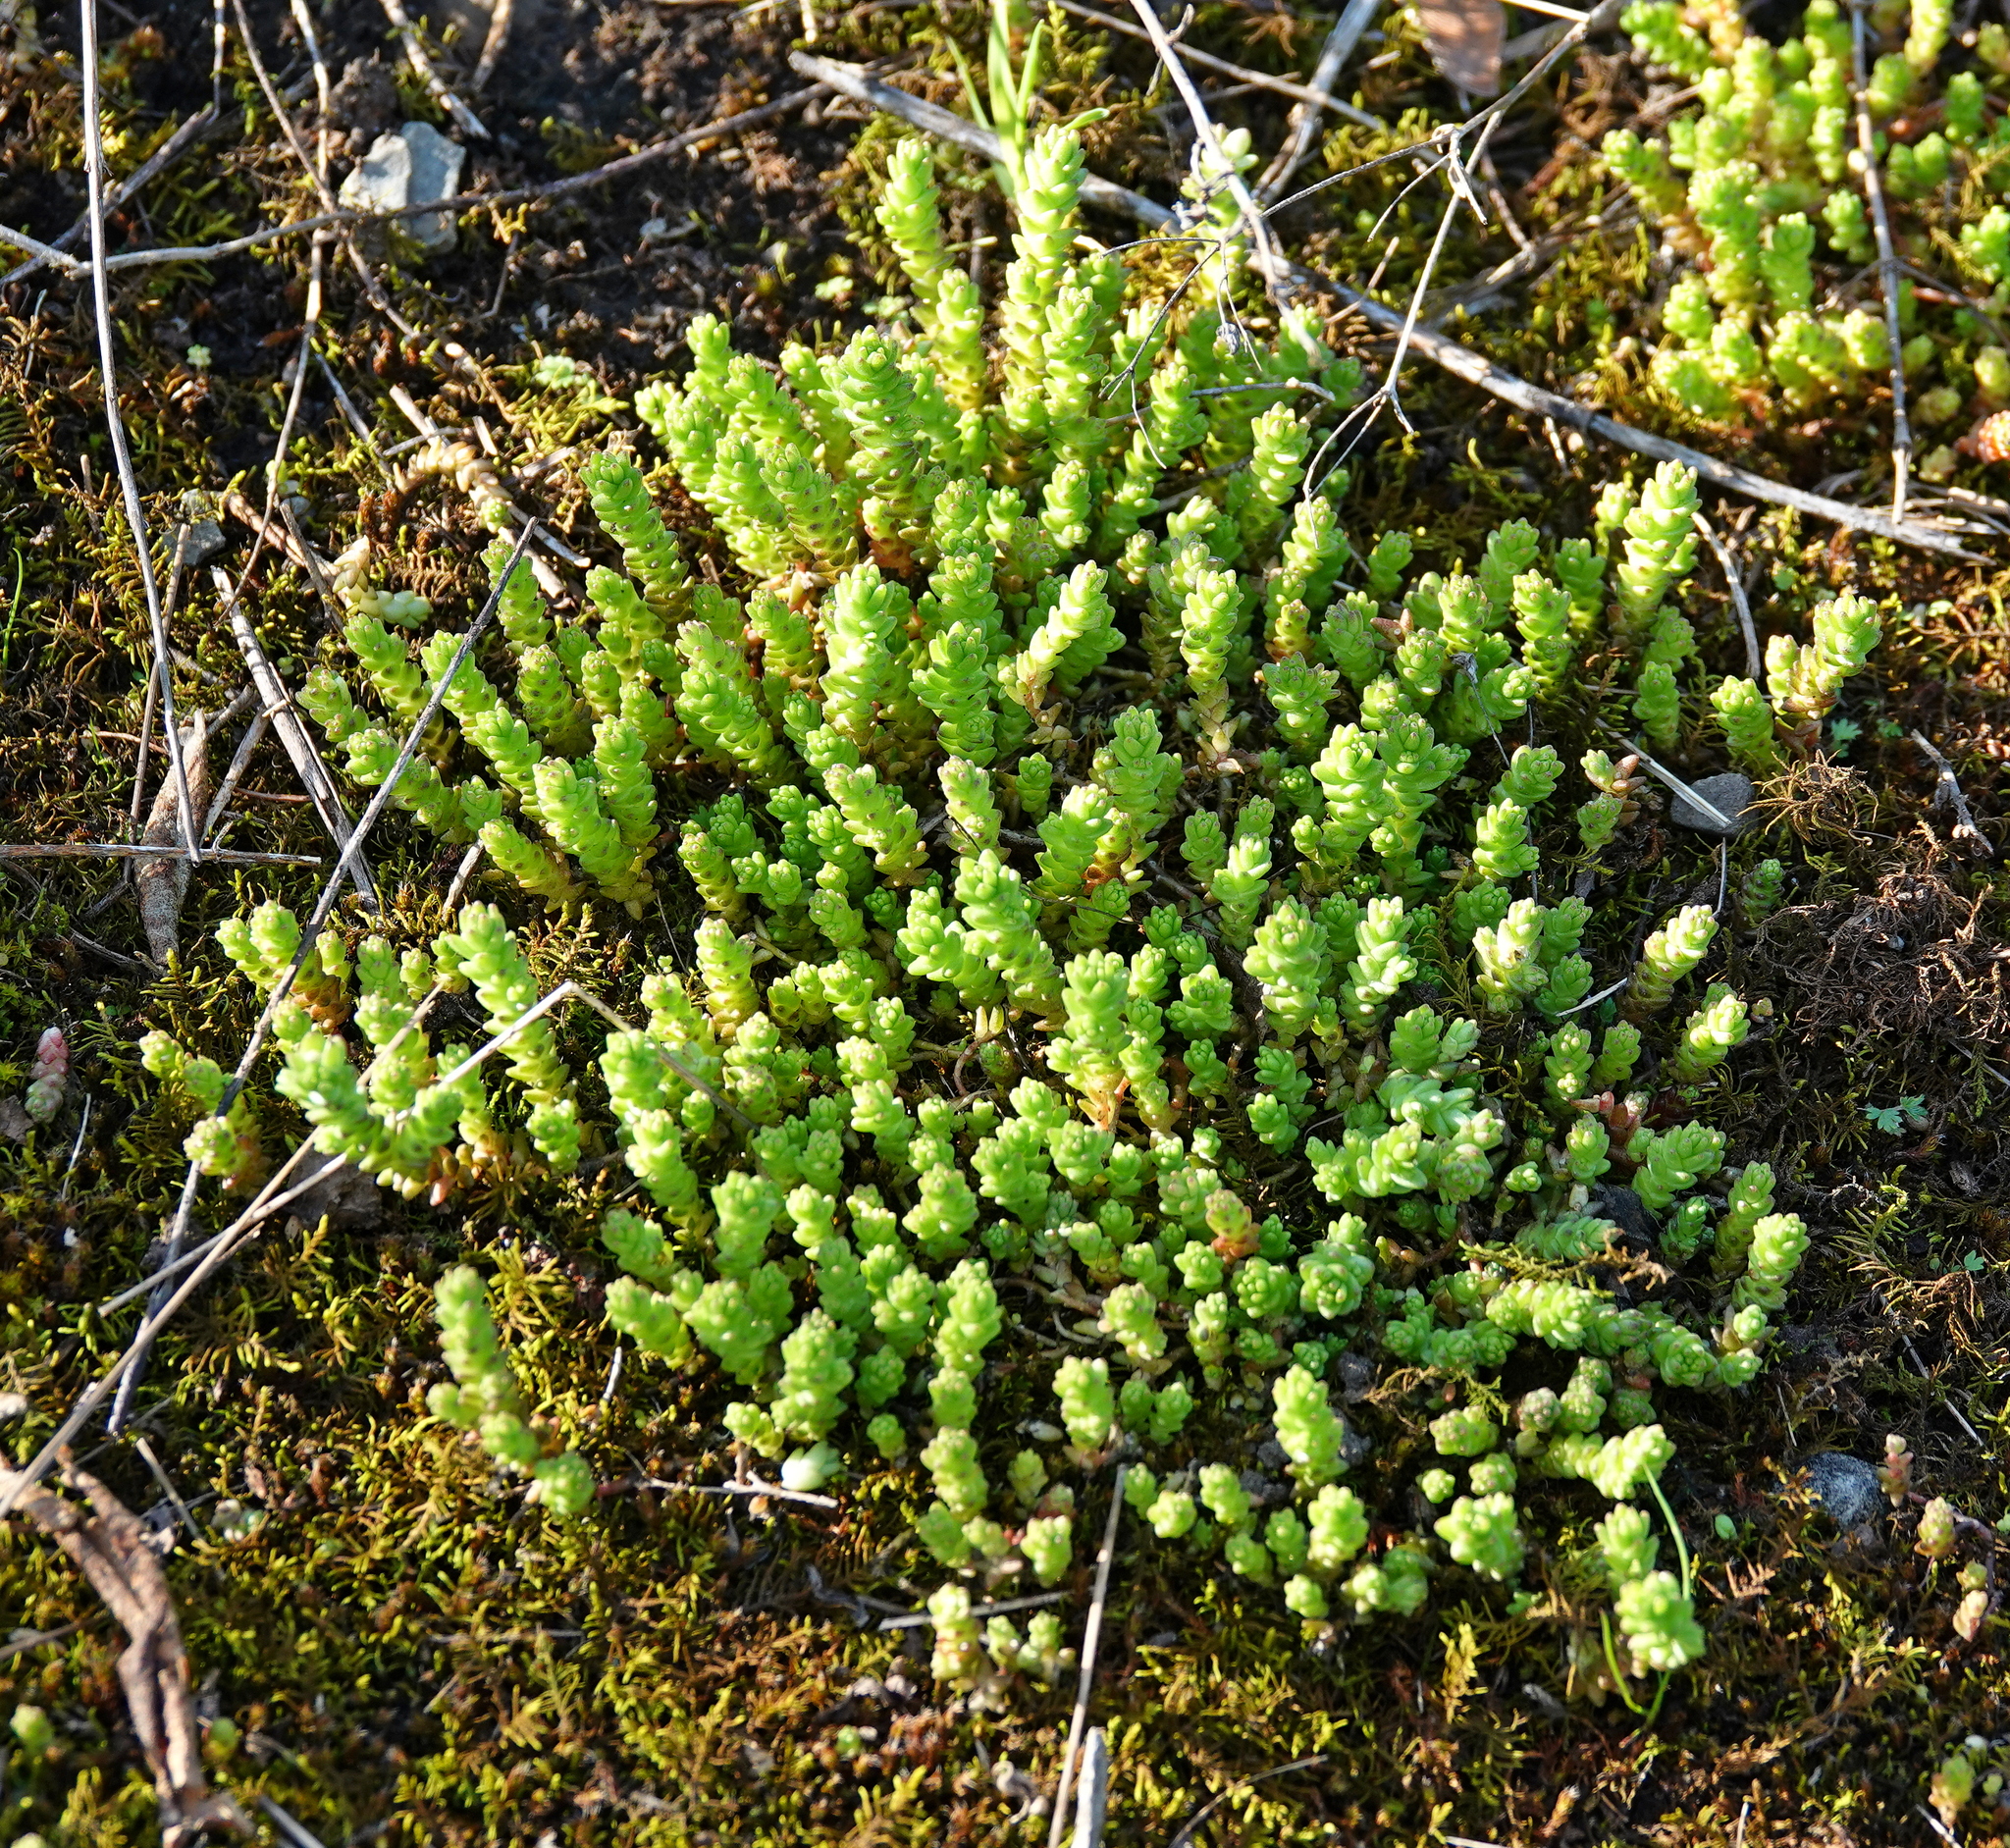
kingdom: Plantae
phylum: Tracheophyta
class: Magnoliopsida
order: Saxifragales
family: Crassulaceae
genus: Sedum
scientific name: Sedum acre
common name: Biting stonecrop
